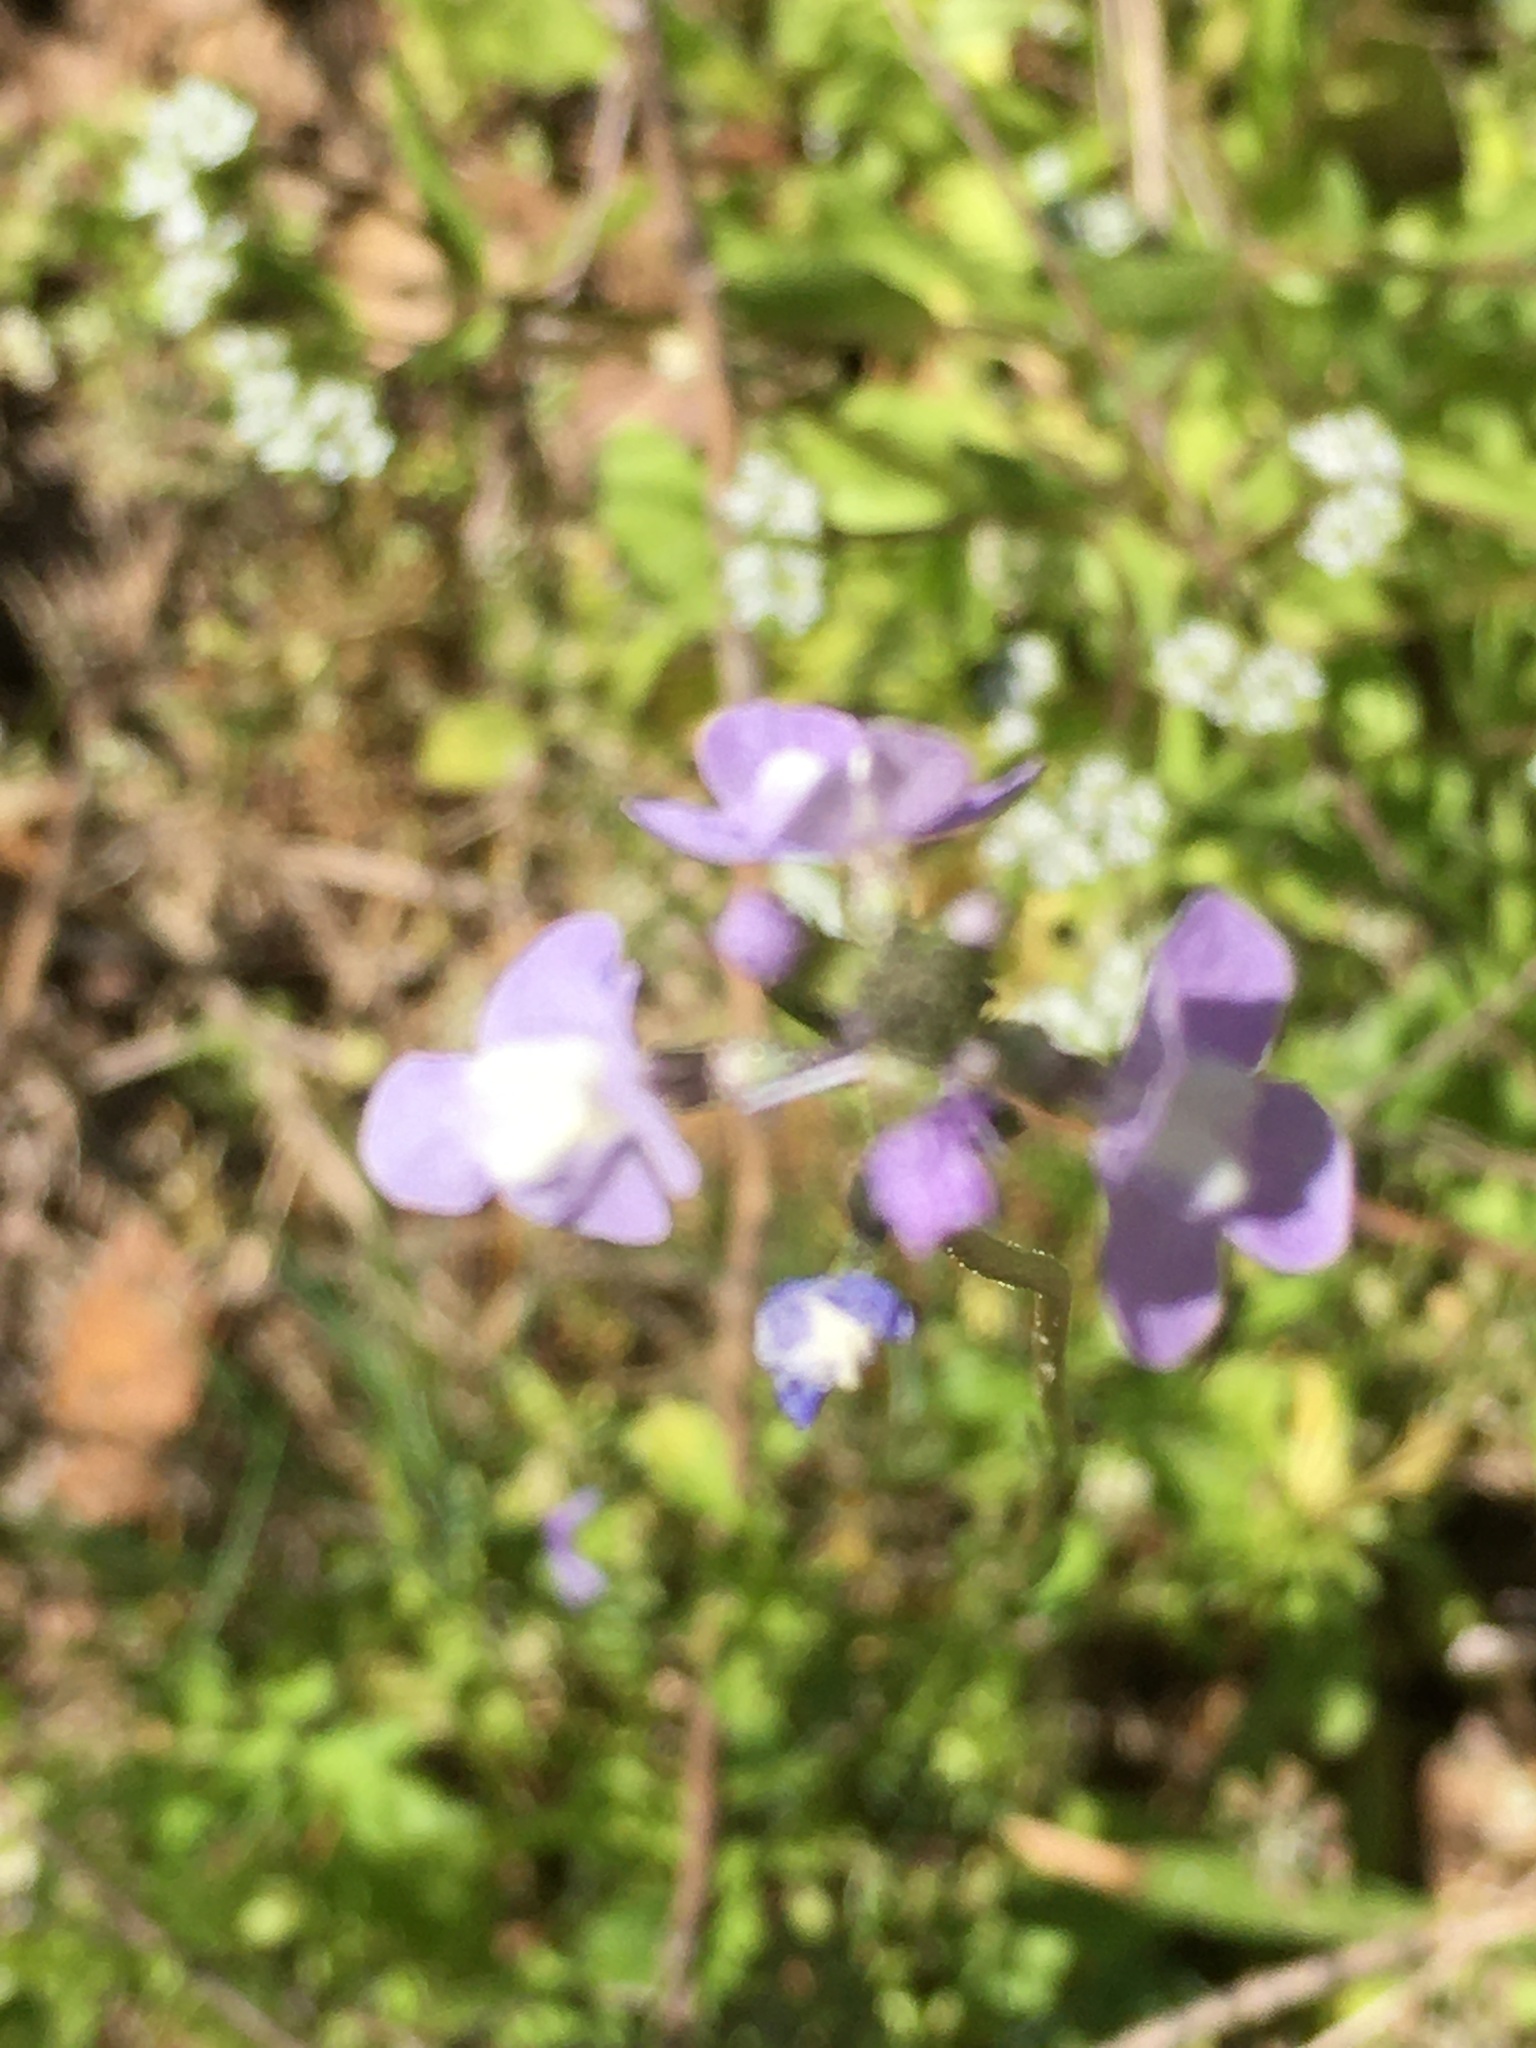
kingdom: Plantae
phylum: Tracheophyta
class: Magnoliopsida
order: Lamiales
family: Plantaginaceae
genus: Nuttallanthus
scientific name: Nuttallanthus canadensis
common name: Blue toadflax
